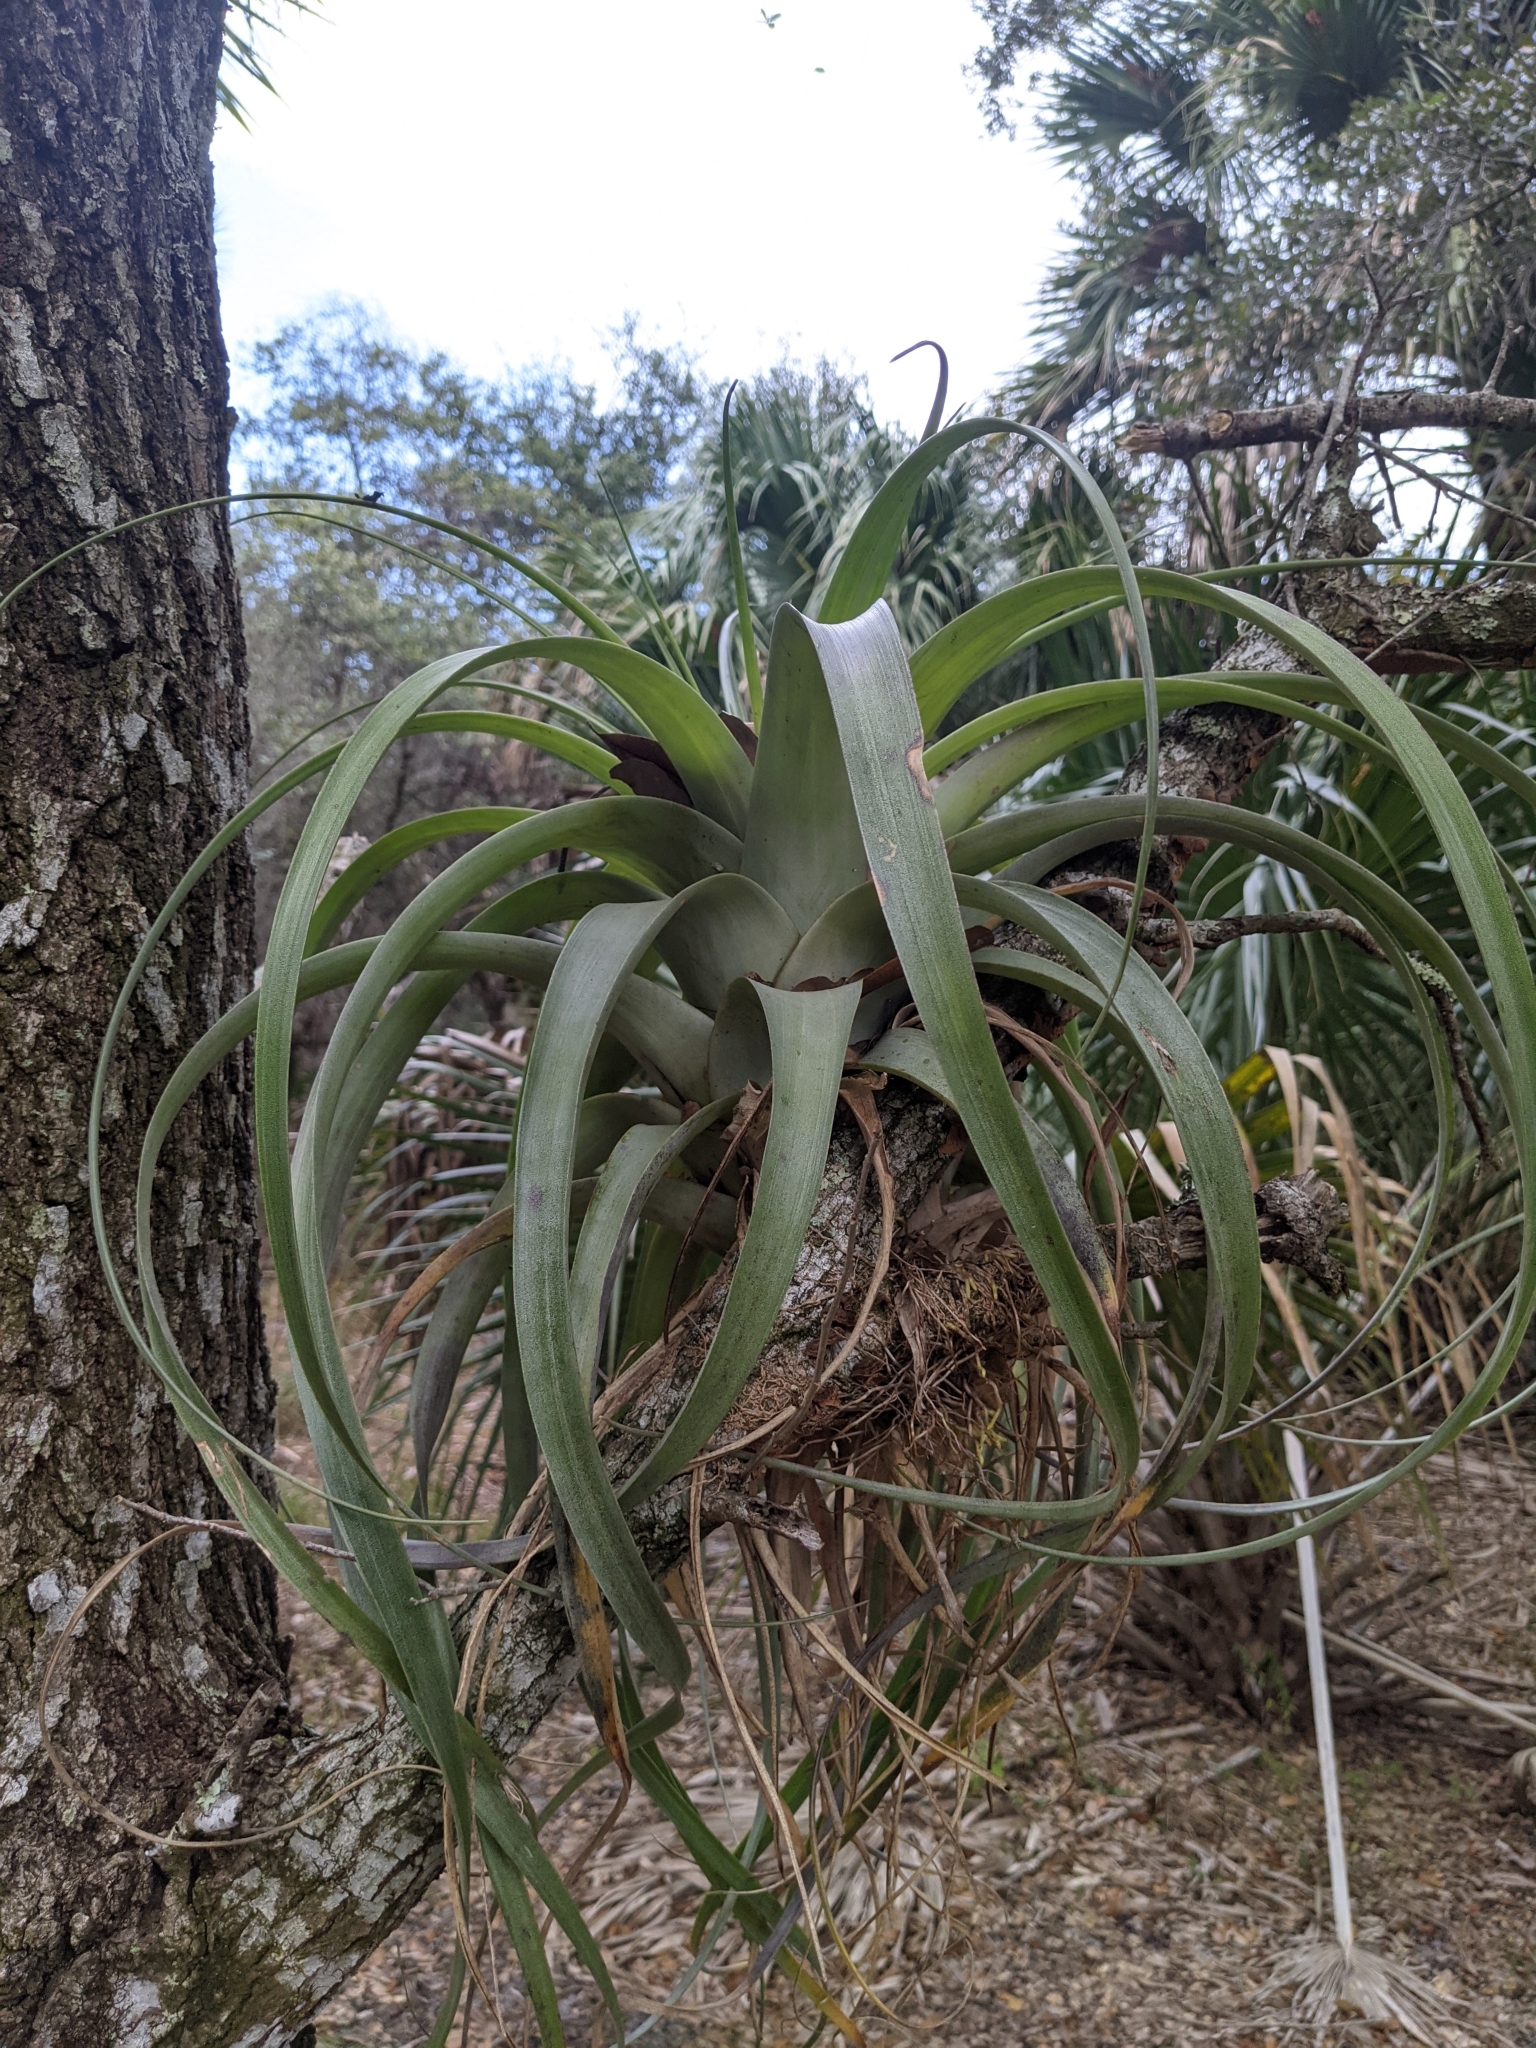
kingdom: Plantae
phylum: Tracheophyta
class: Liliopsida
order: Poales
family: Bromeliaceae
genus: Tillandsia
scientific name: Tillandsia utriculata
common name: Wild pine
